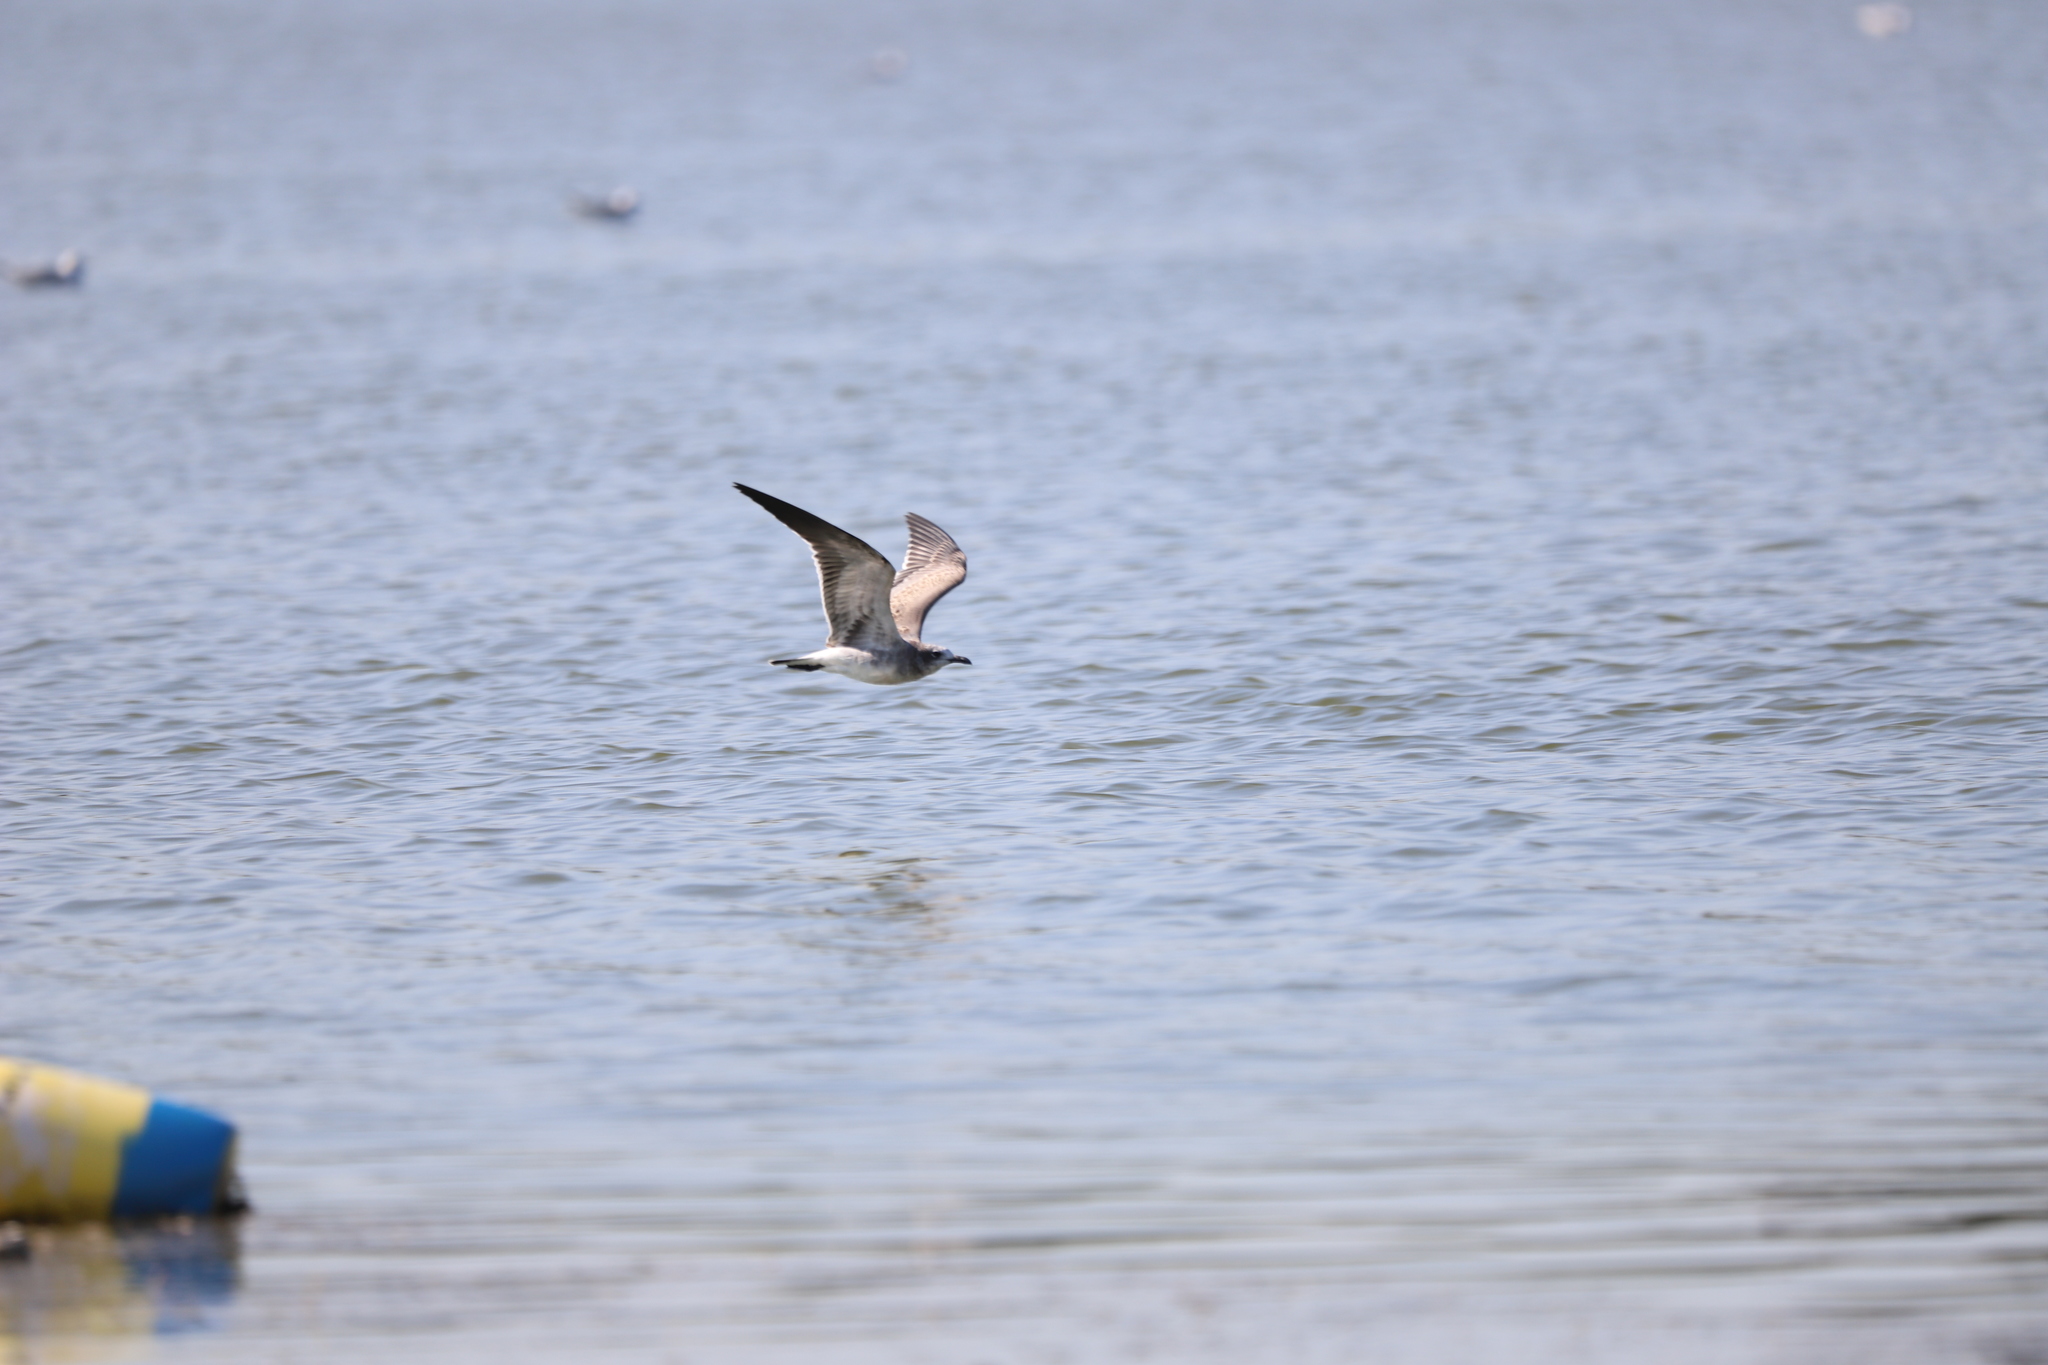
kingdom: Animalia
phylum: Chordata
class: Aves
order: Charadriiformes
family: Laridae
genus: Leucophaeus
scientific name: Leucophaeus atricilla
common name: Laughing gull
